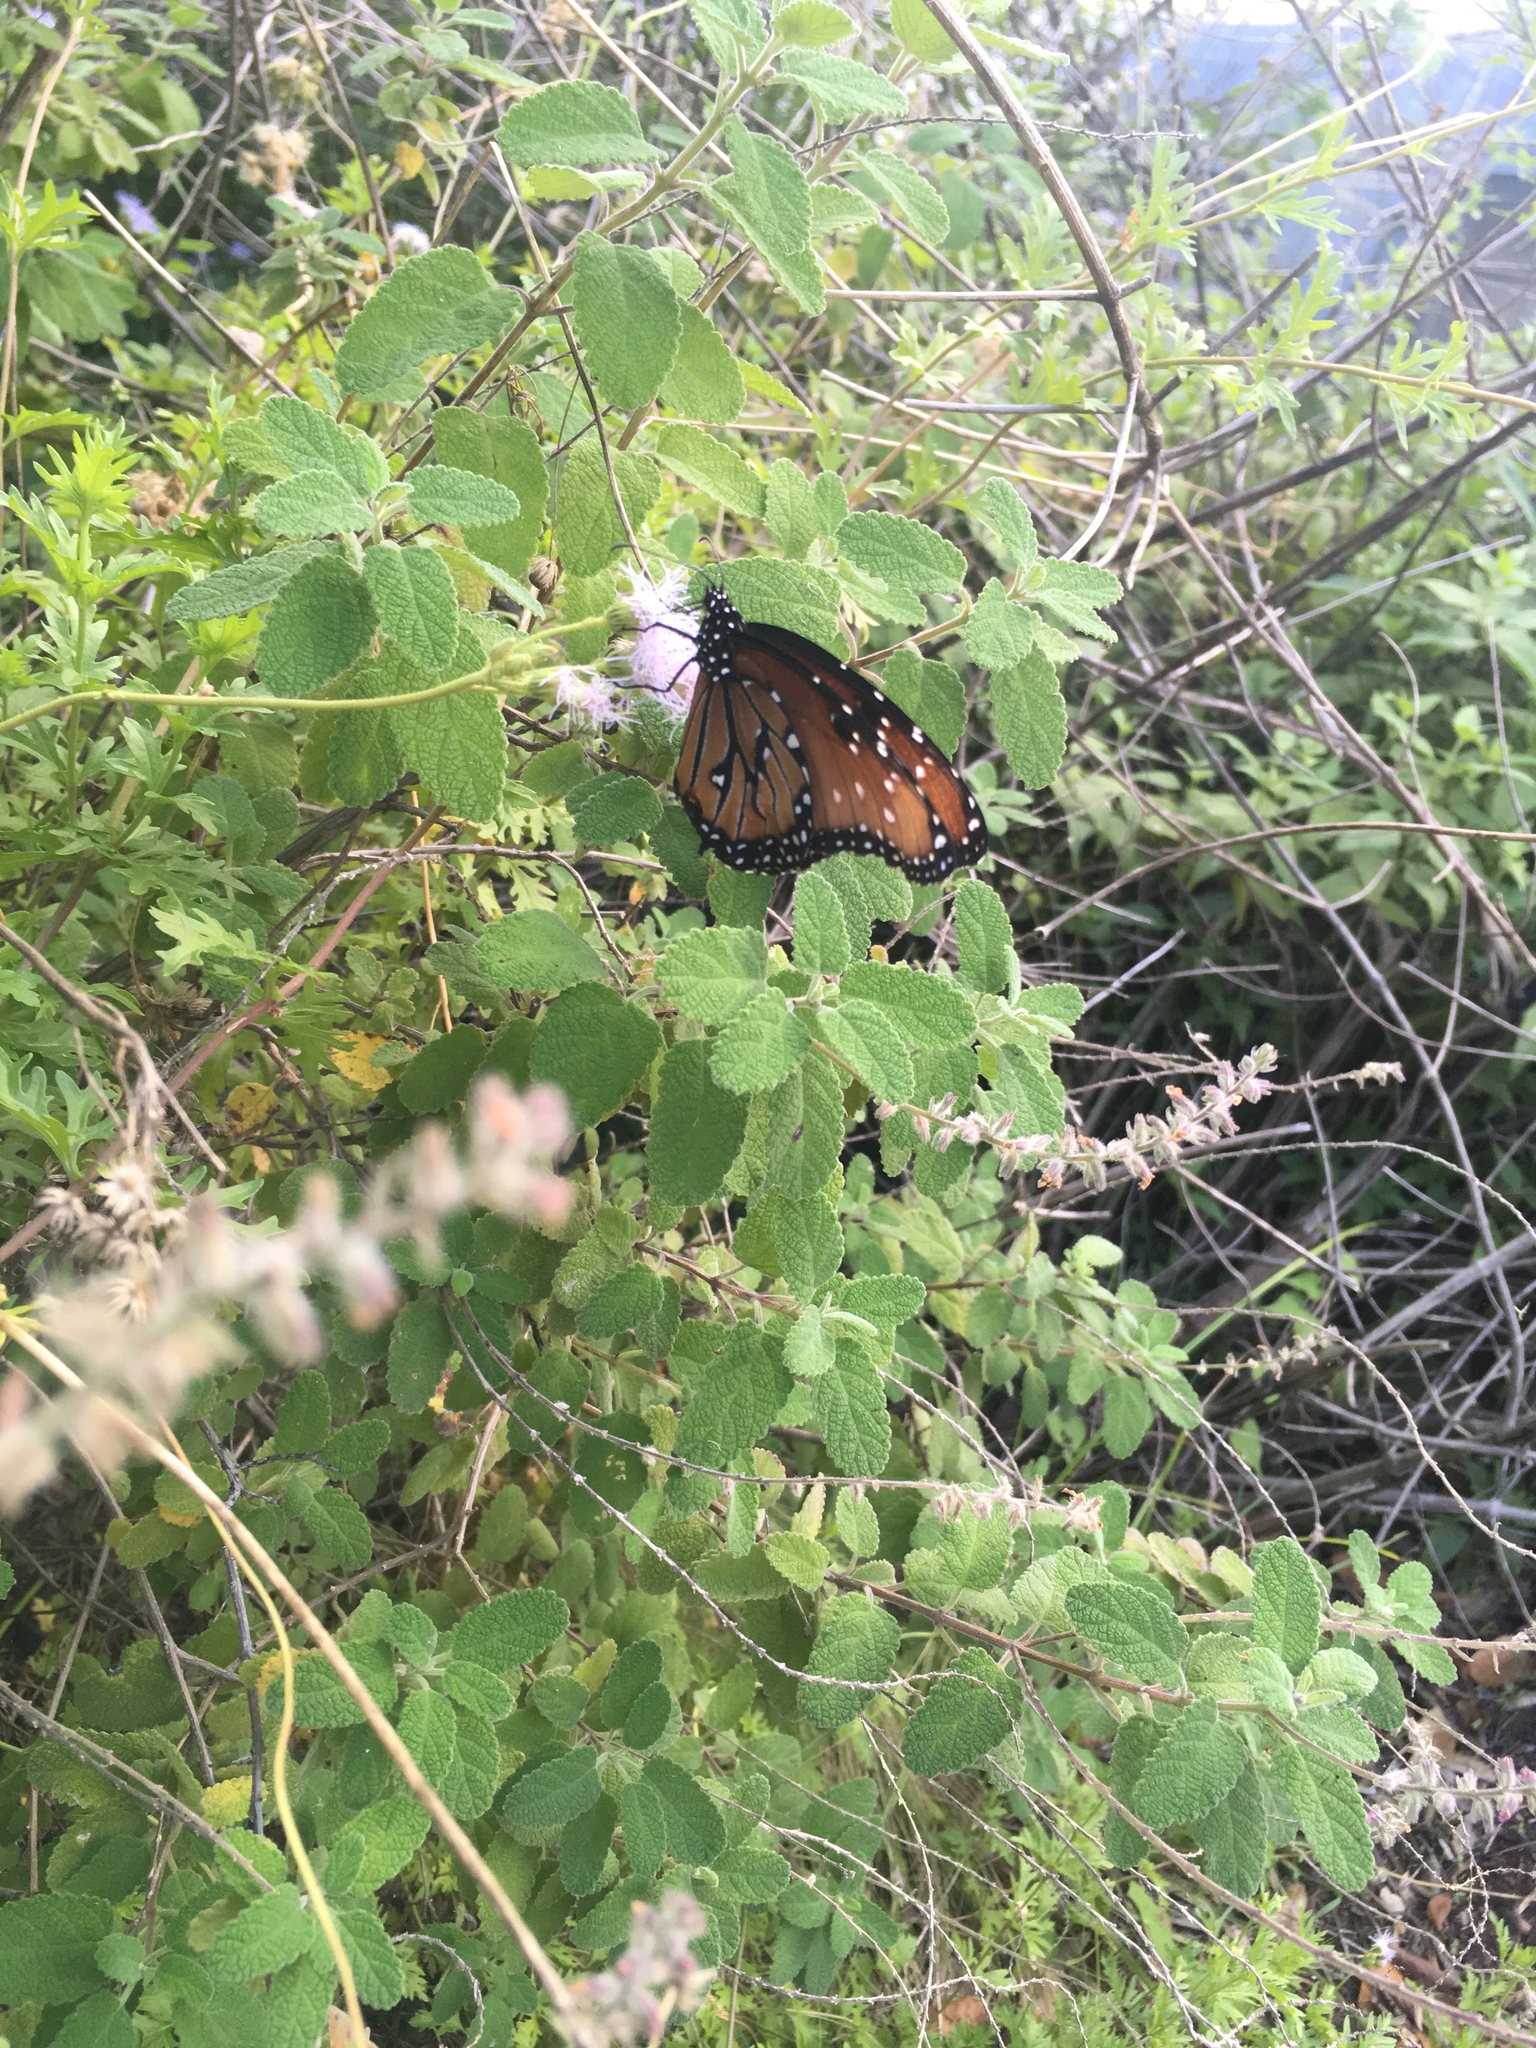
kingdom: Animalia
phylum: Arthropoda
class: Insecta
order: Lepidoptera
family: Nymphalidae
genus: Danaus
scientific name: Danaus gilippus
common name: Queen
